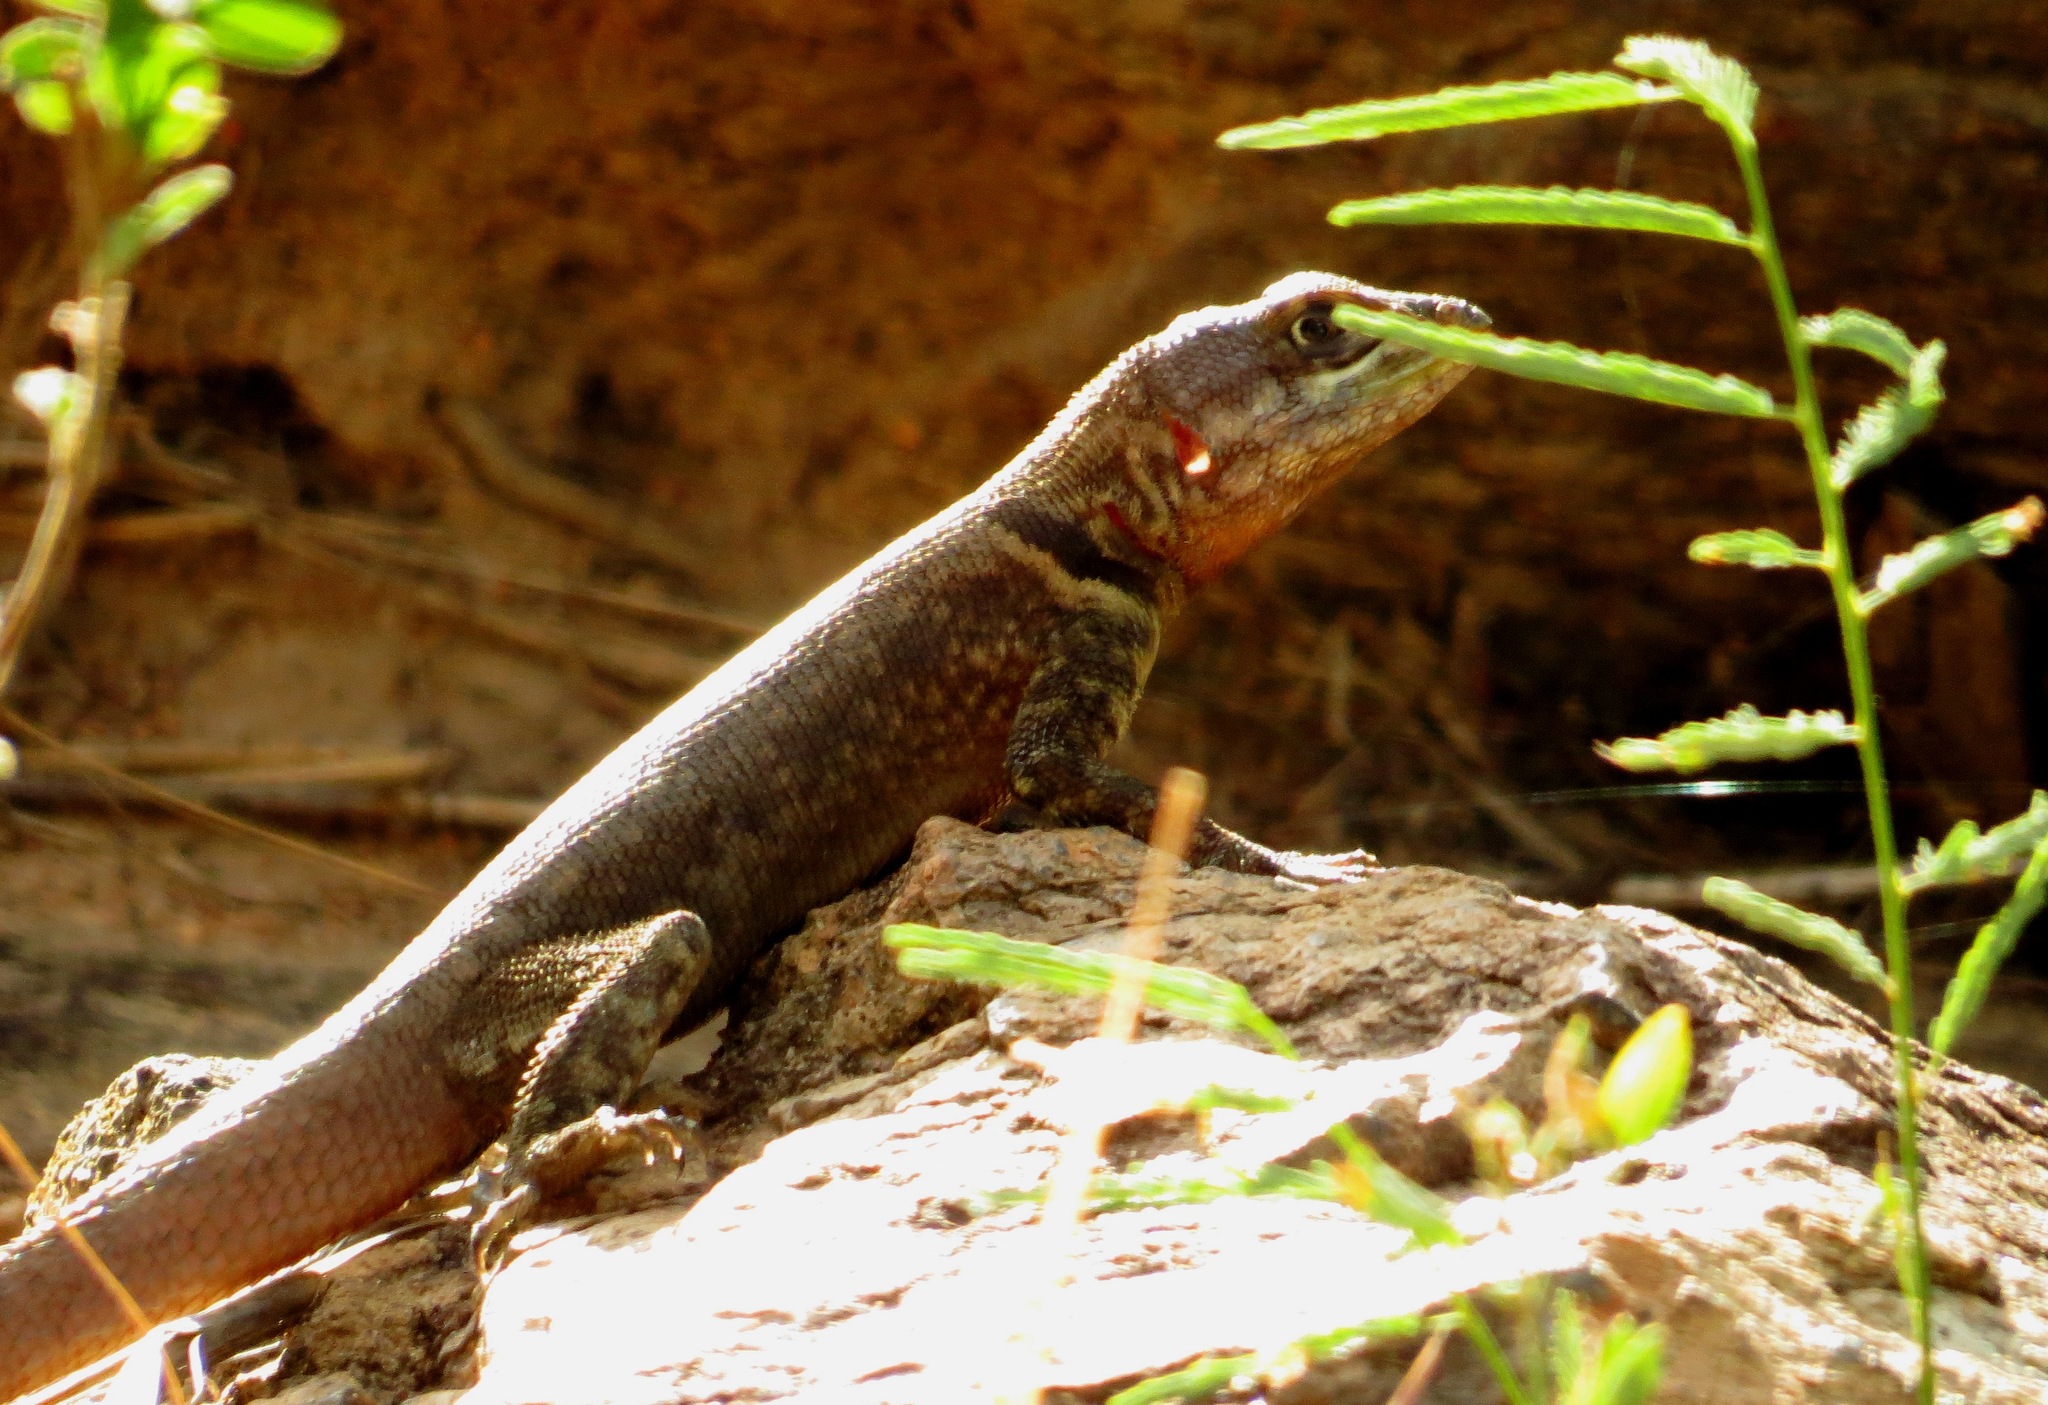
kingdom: Animalia
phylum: Chordata
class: Squamata
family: Tropiduridae
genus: Tropidurus
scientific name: Tropidurus hispidus
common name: Peters' lava lizard
